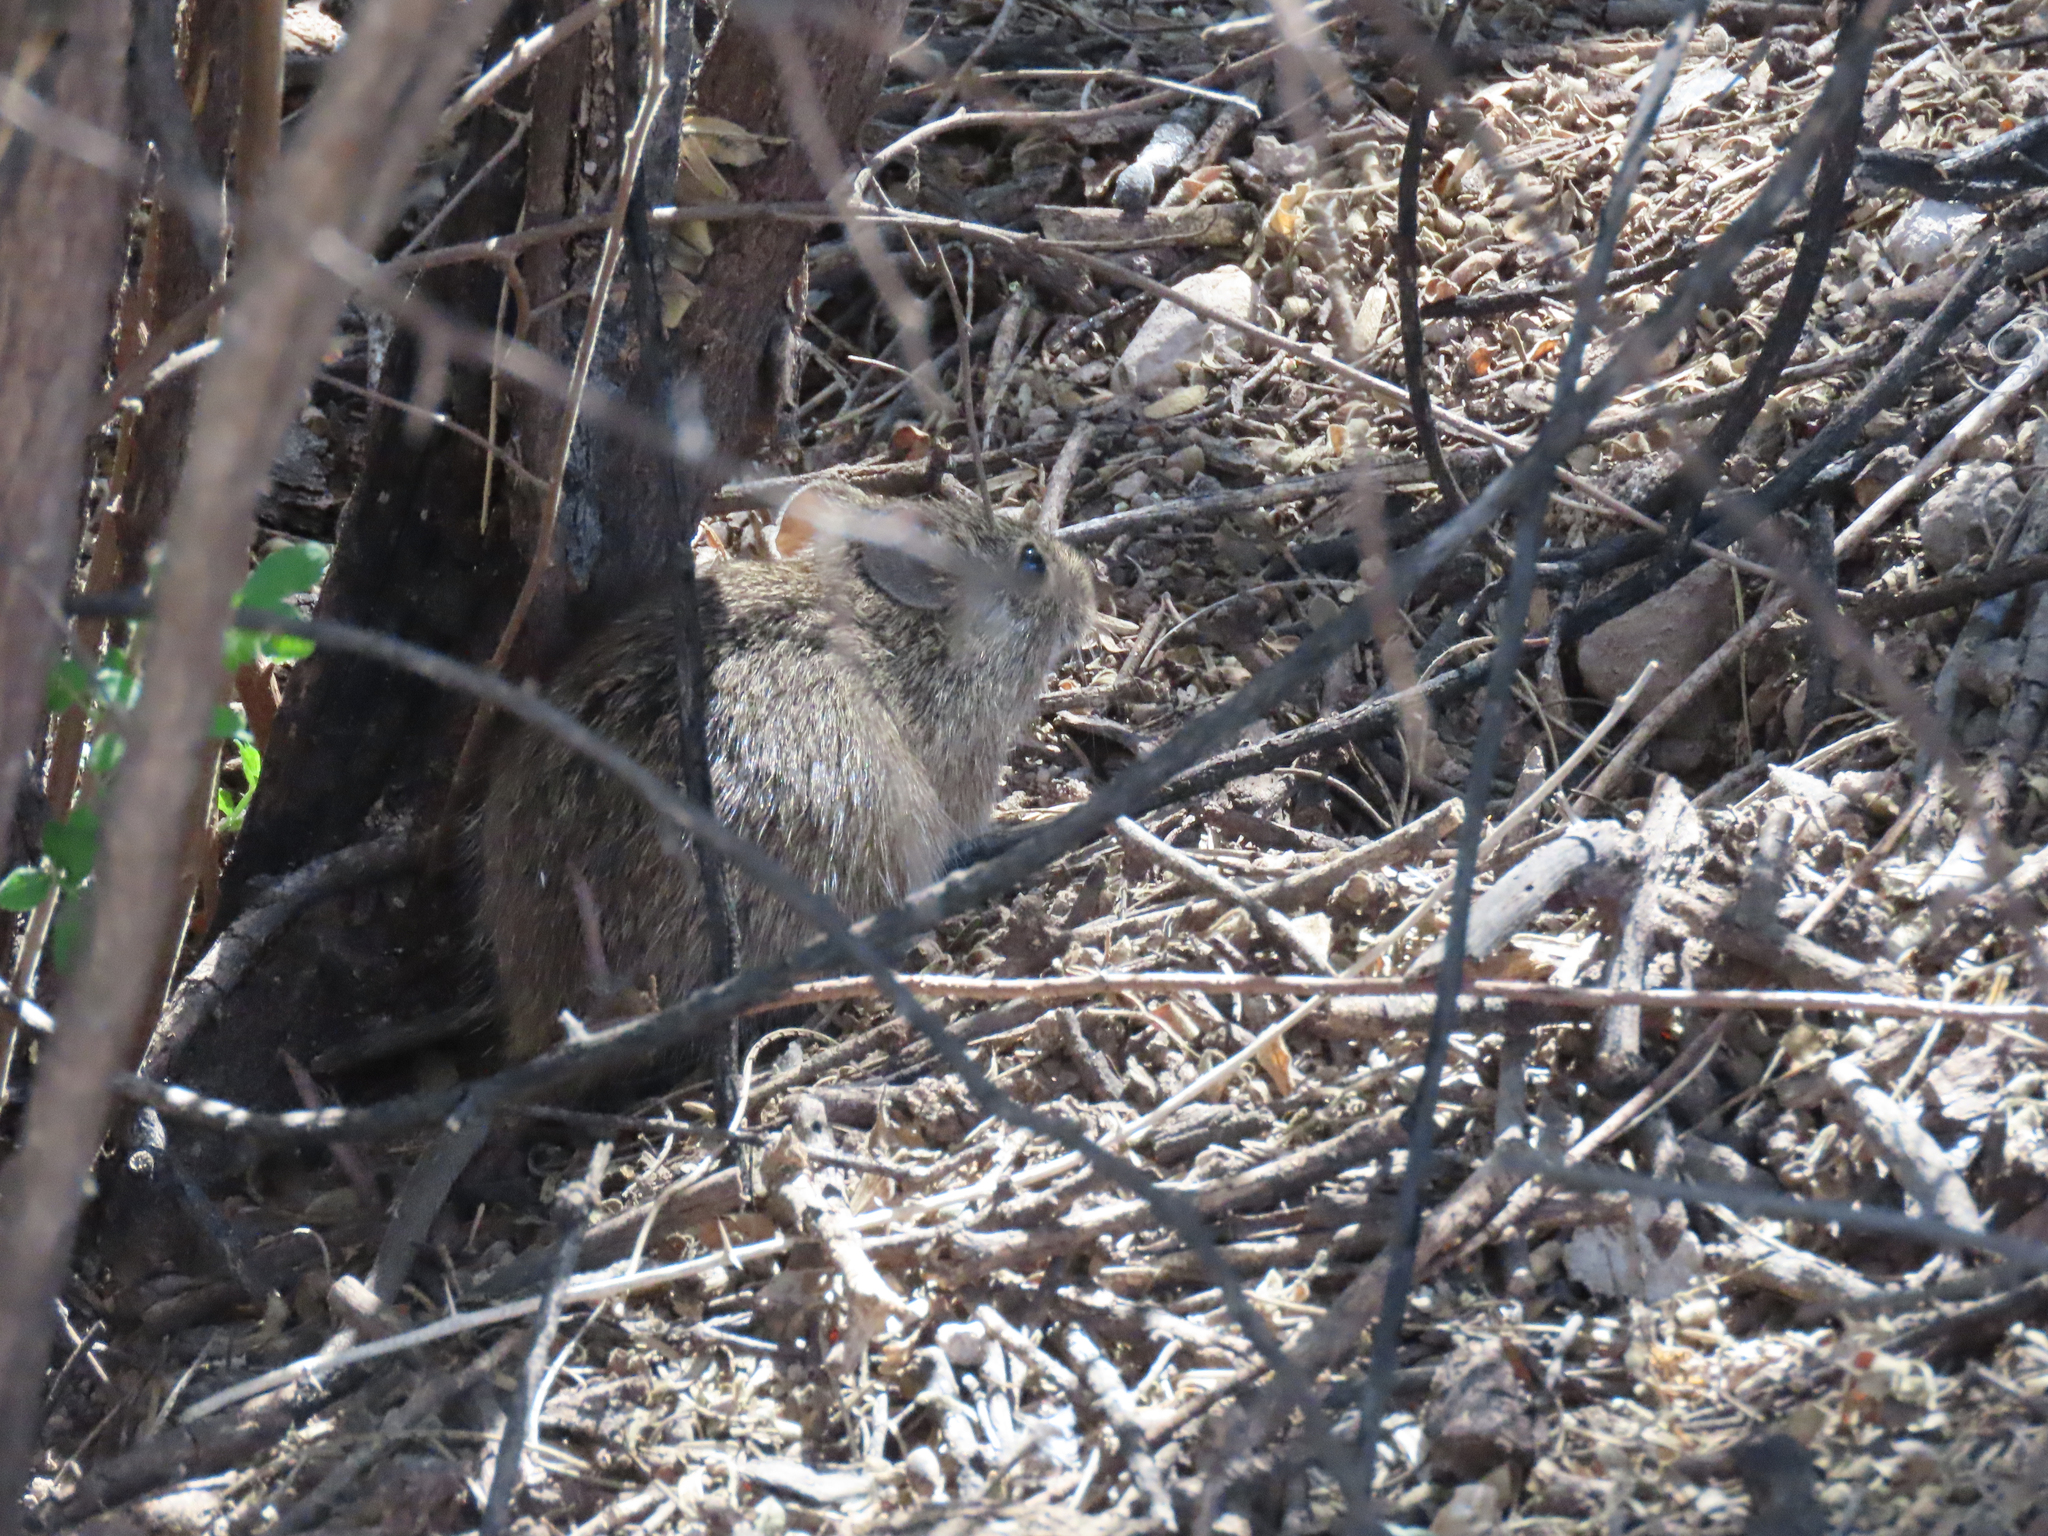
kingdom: Animalia
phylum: Chordata
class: Mammalia
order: Rodentia
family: Cricetidae
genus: Sigmodon
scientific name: Sigmodon arizonae
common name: Arizona cotton rat
